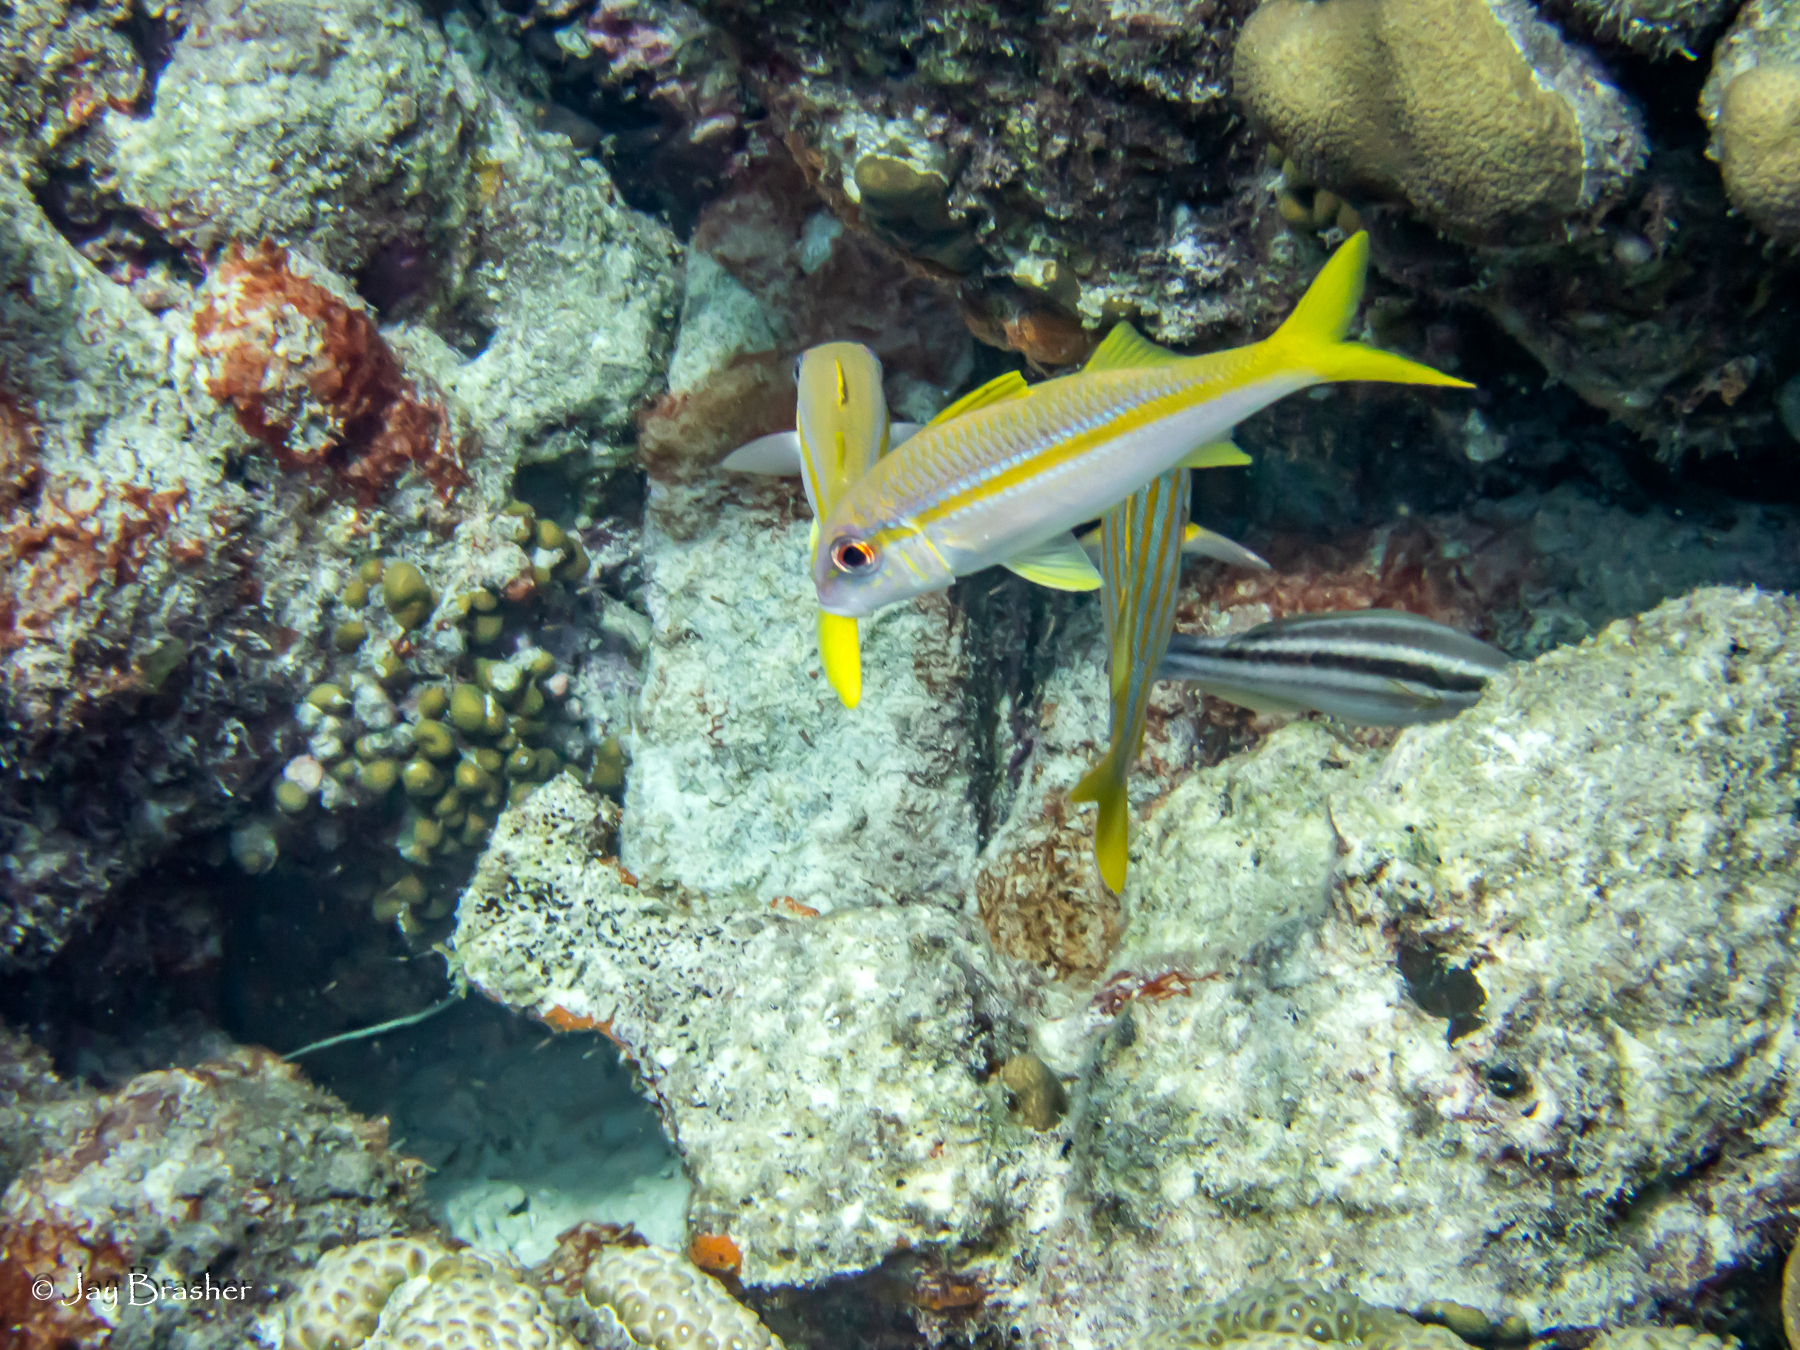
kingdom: Animalia
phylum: Chordata
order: Perciformes
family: Mullidae
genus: Mulloidichthys
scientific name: Mulloidichthys martinicus
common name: Yellow goatfish
